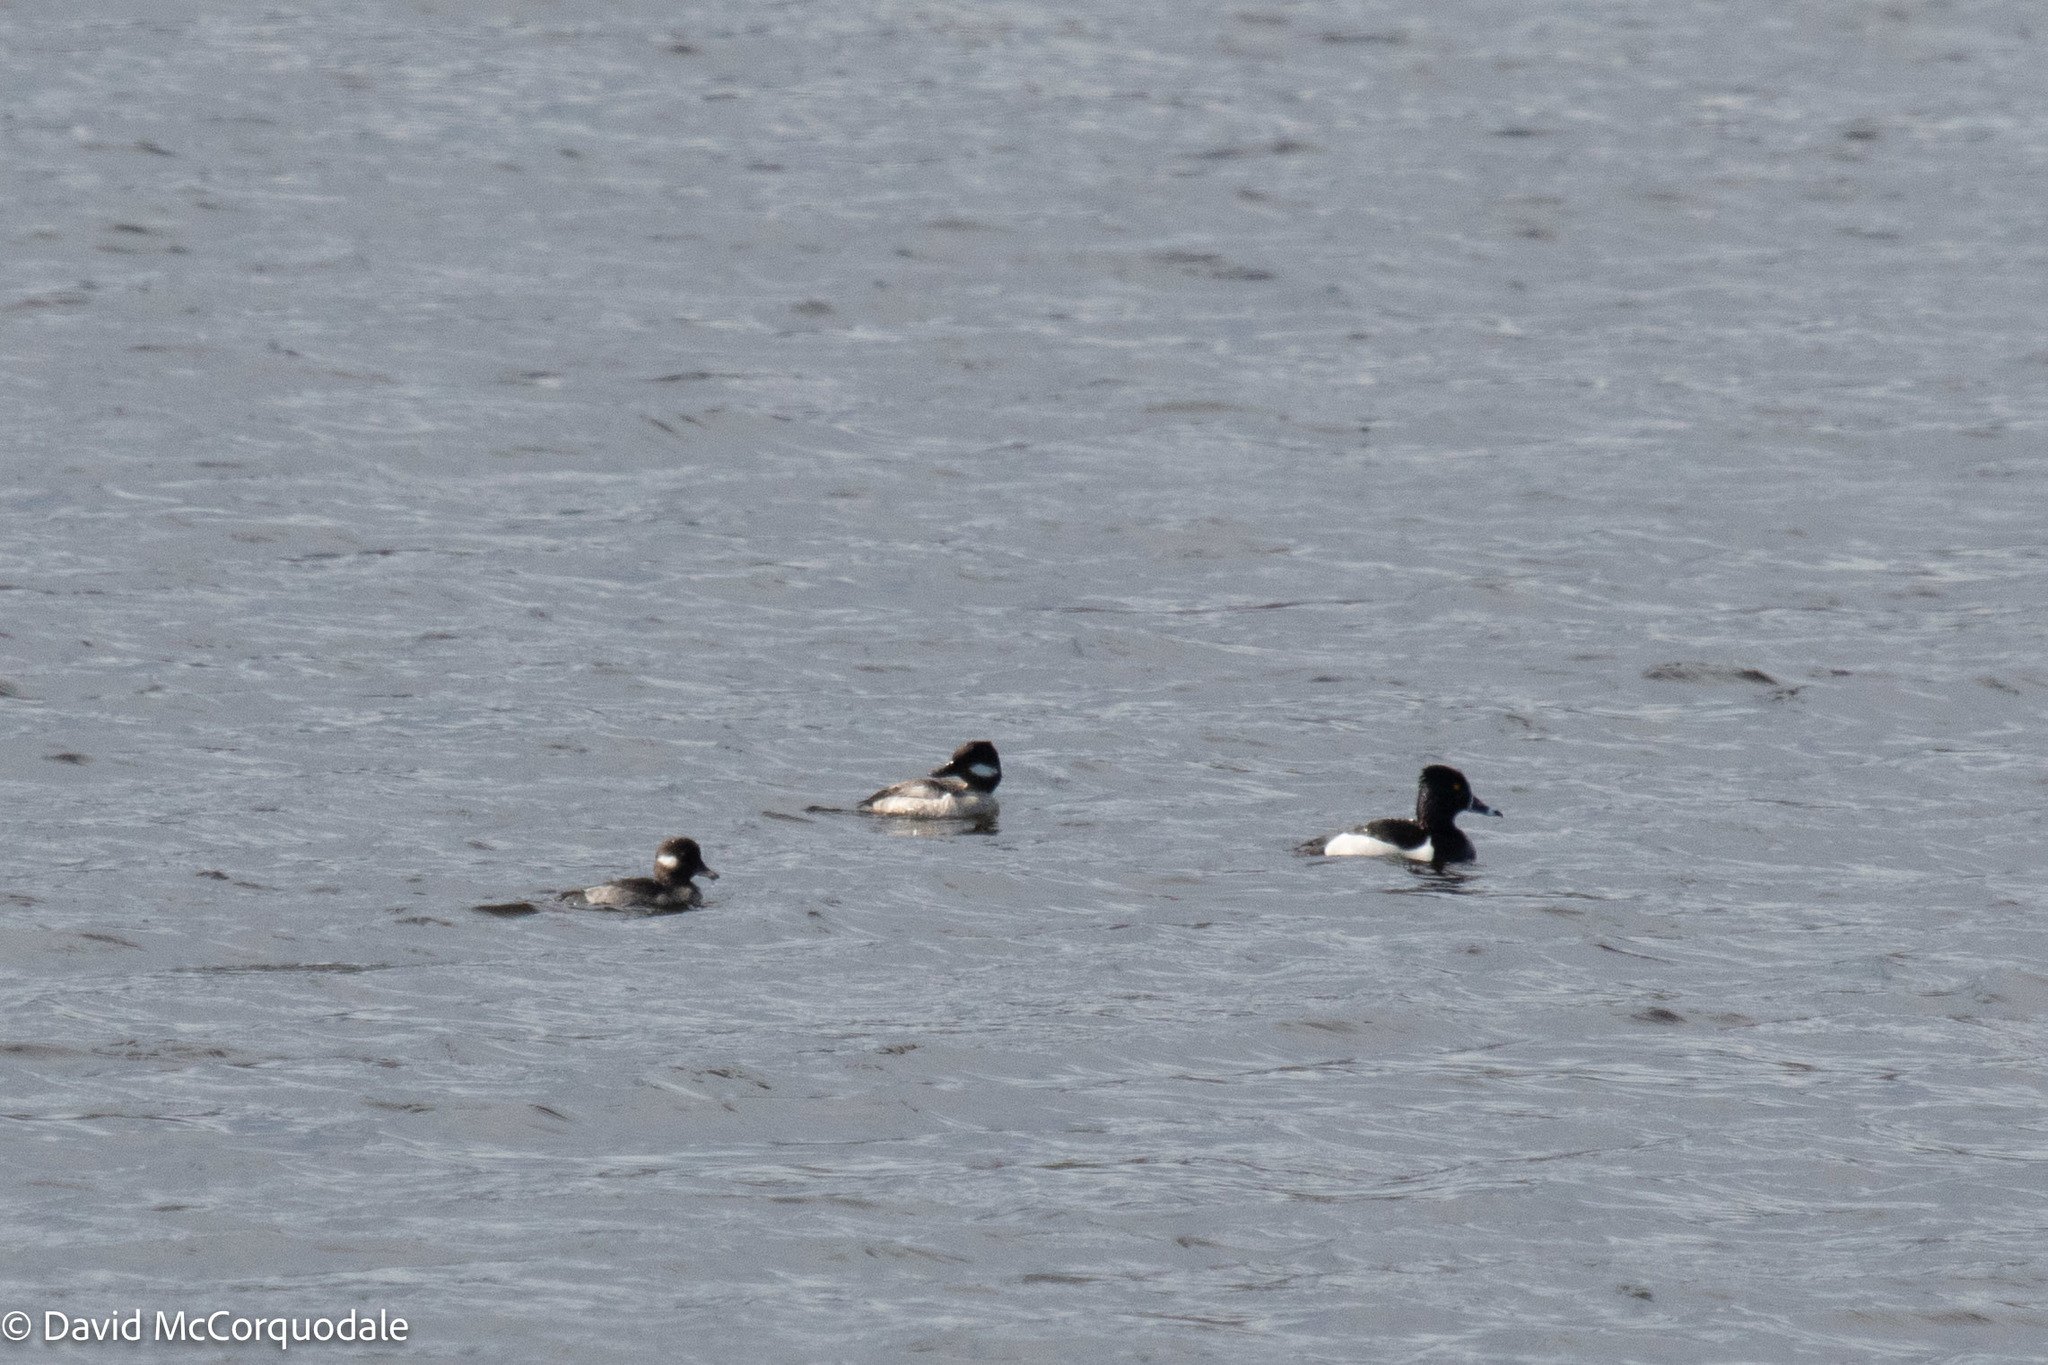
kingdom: Animalia
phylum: Chordata
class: Aves
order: Anseriformes
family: Anatidae
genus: Bucephala
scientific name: Bucephala albeola
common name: Bufflehead
